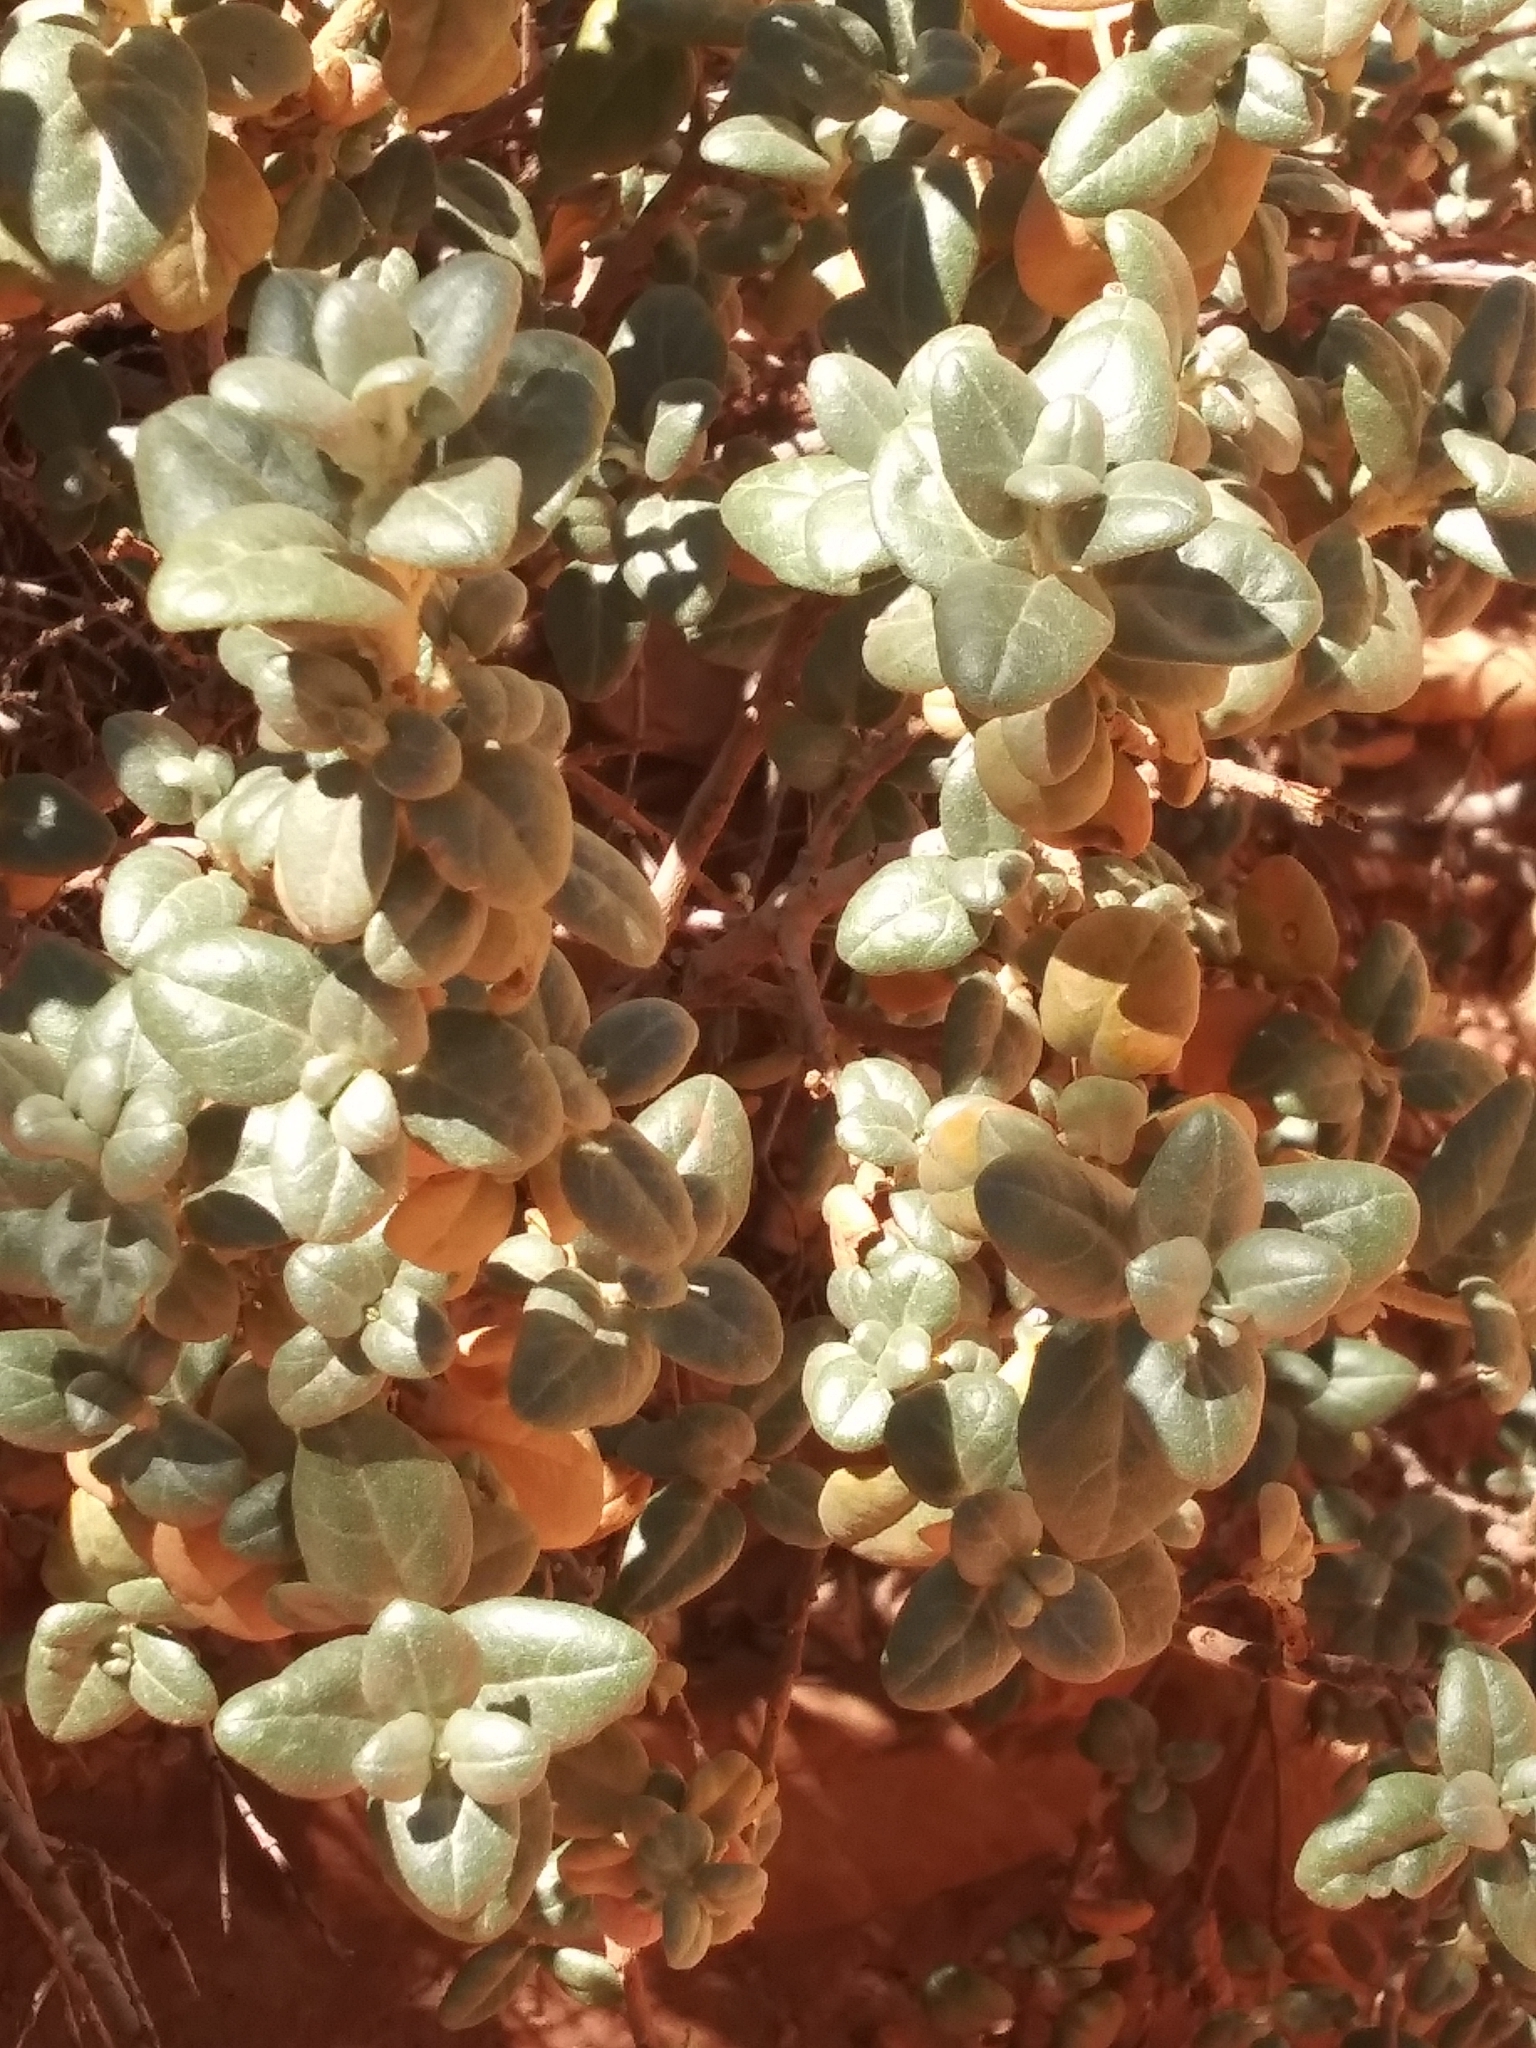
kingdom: Plantae
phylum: Tracheophyta
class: Magnoliopsida
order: Rosales
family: Elaeagnaceae
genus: Shepherdia
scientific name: Shepherdia rotundifolia
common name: Silverscale
